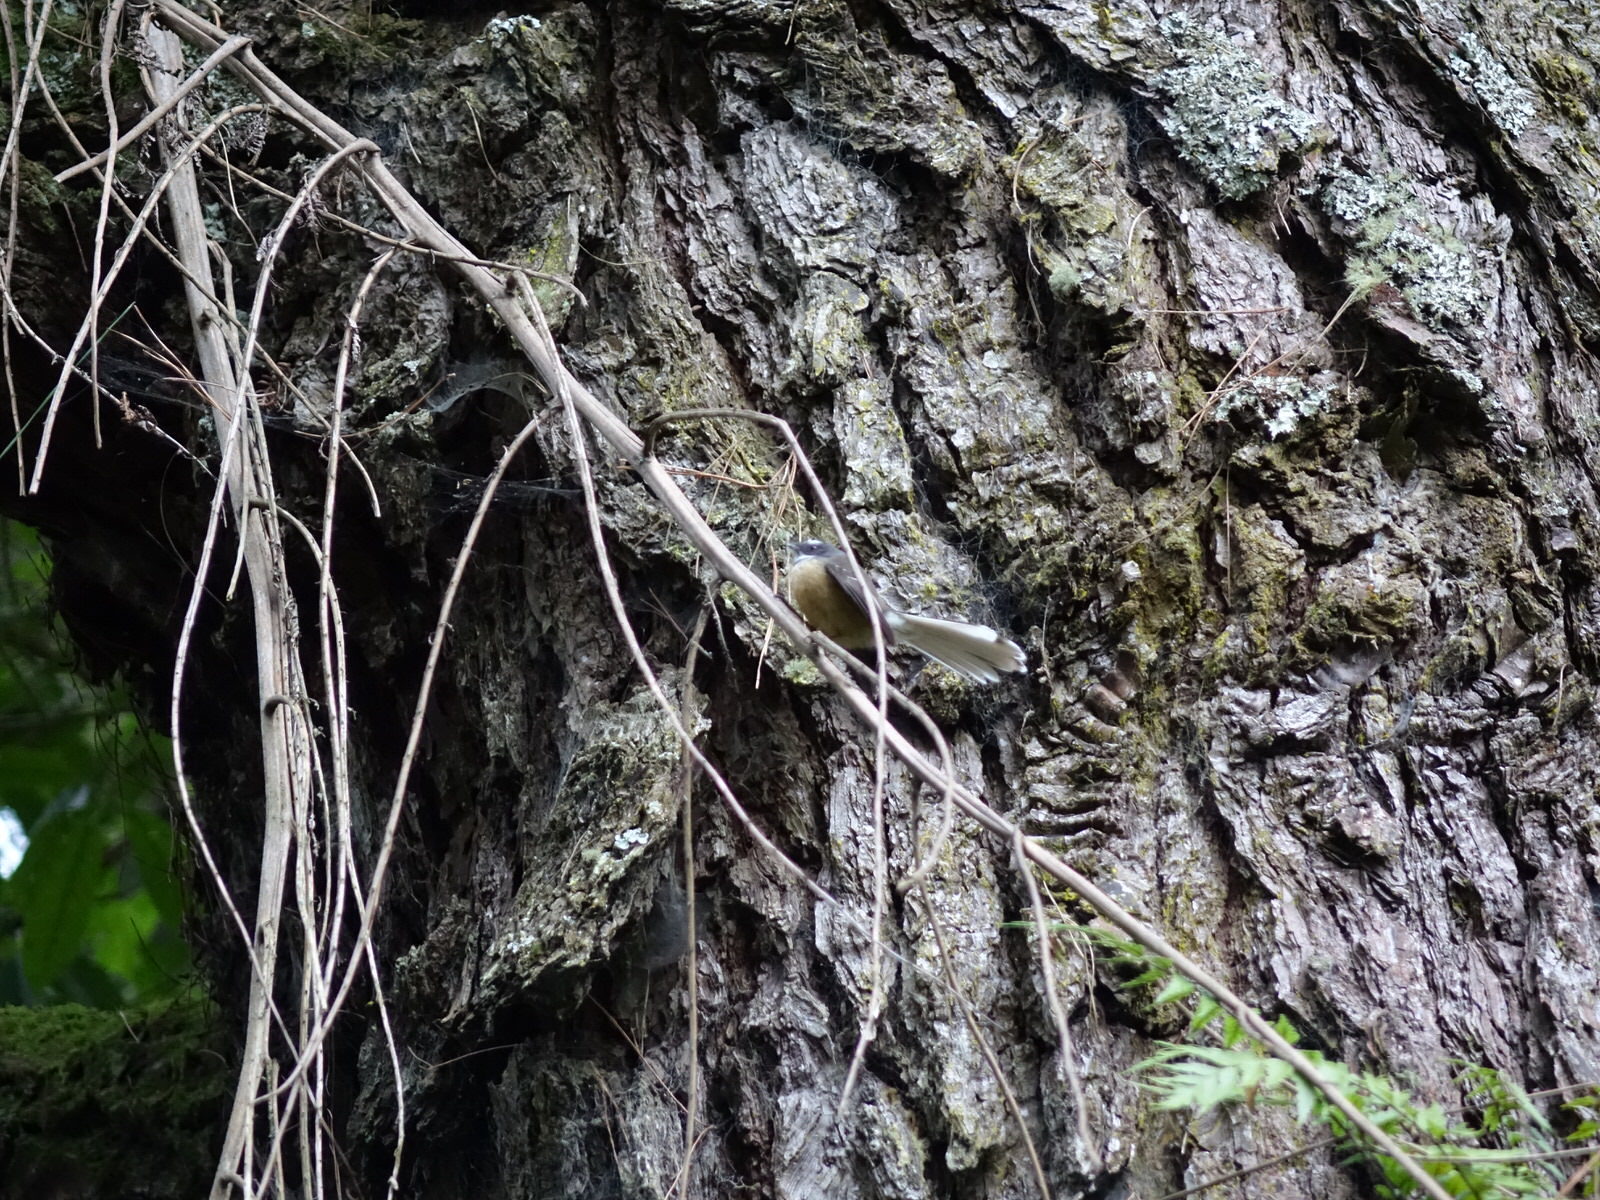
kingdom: Animalia
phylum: Chordata
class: Aves
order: Passeriformes
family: Rhipiduridae
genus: Rhipidura
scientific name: Rhipidura fuliginosa
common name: New zealand fantail
